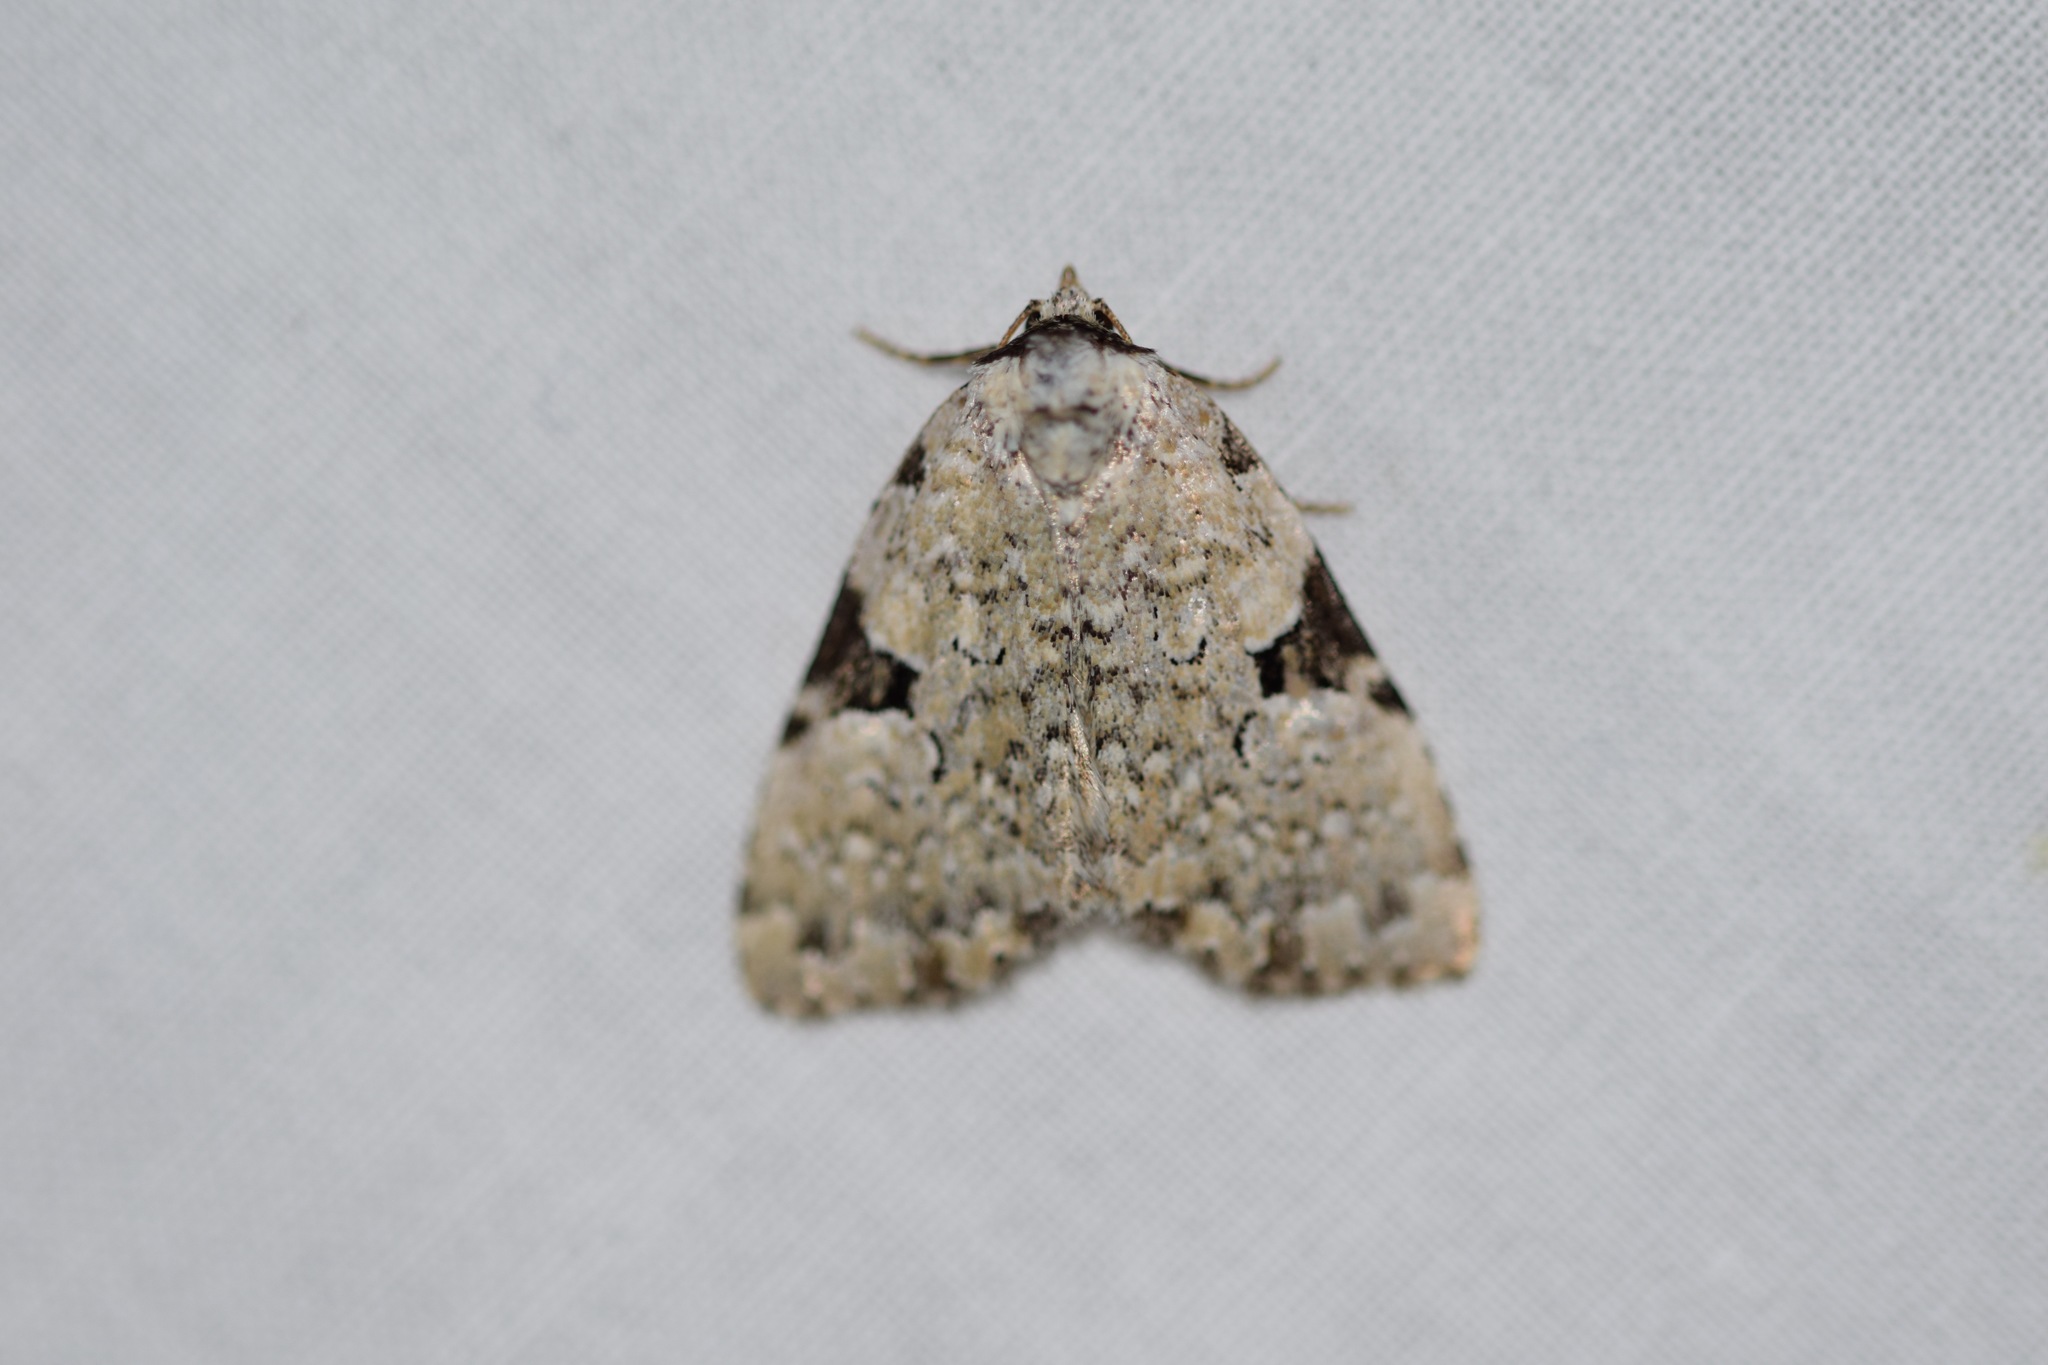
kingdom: Animalia
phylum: Arthropoda
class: Insecta
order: Lepidoptera
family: Noctuidae
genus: Leuconycta
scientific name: Leuconycta diphteroides
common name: Green leuconycta moth
